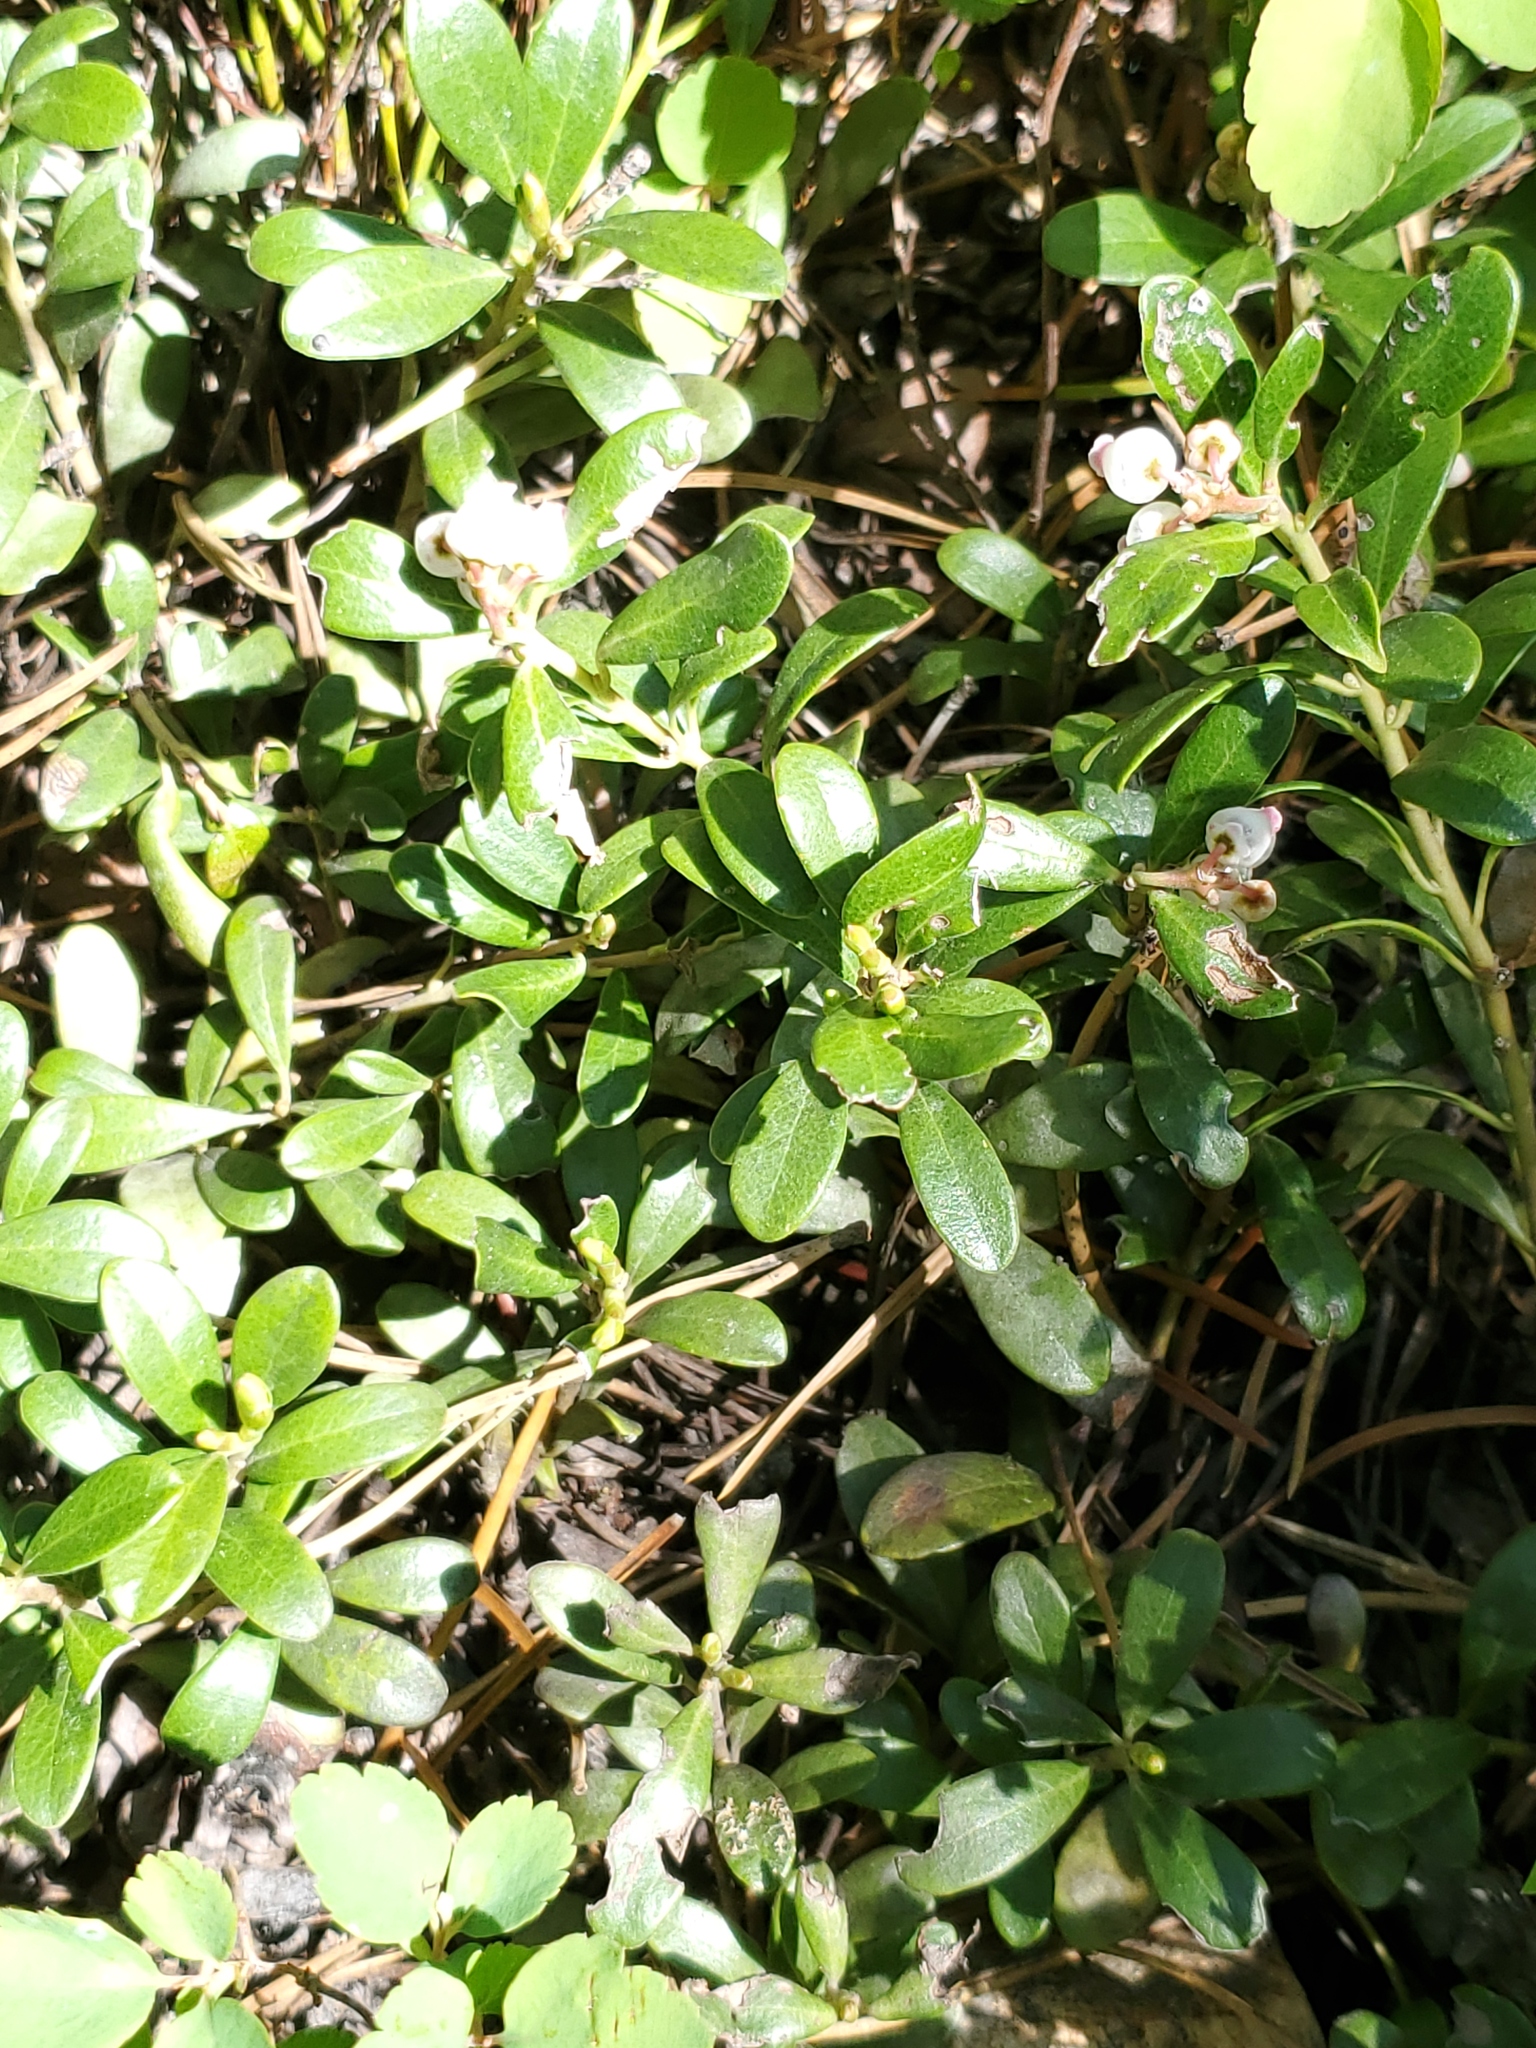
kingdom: Plantae
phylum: Tracheophyta
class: Magnoliopsida
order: Ericales
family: Ericaceae
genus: Arctostaphylos
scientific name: Arctostaphylos uva-ursi
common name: Bearberry
